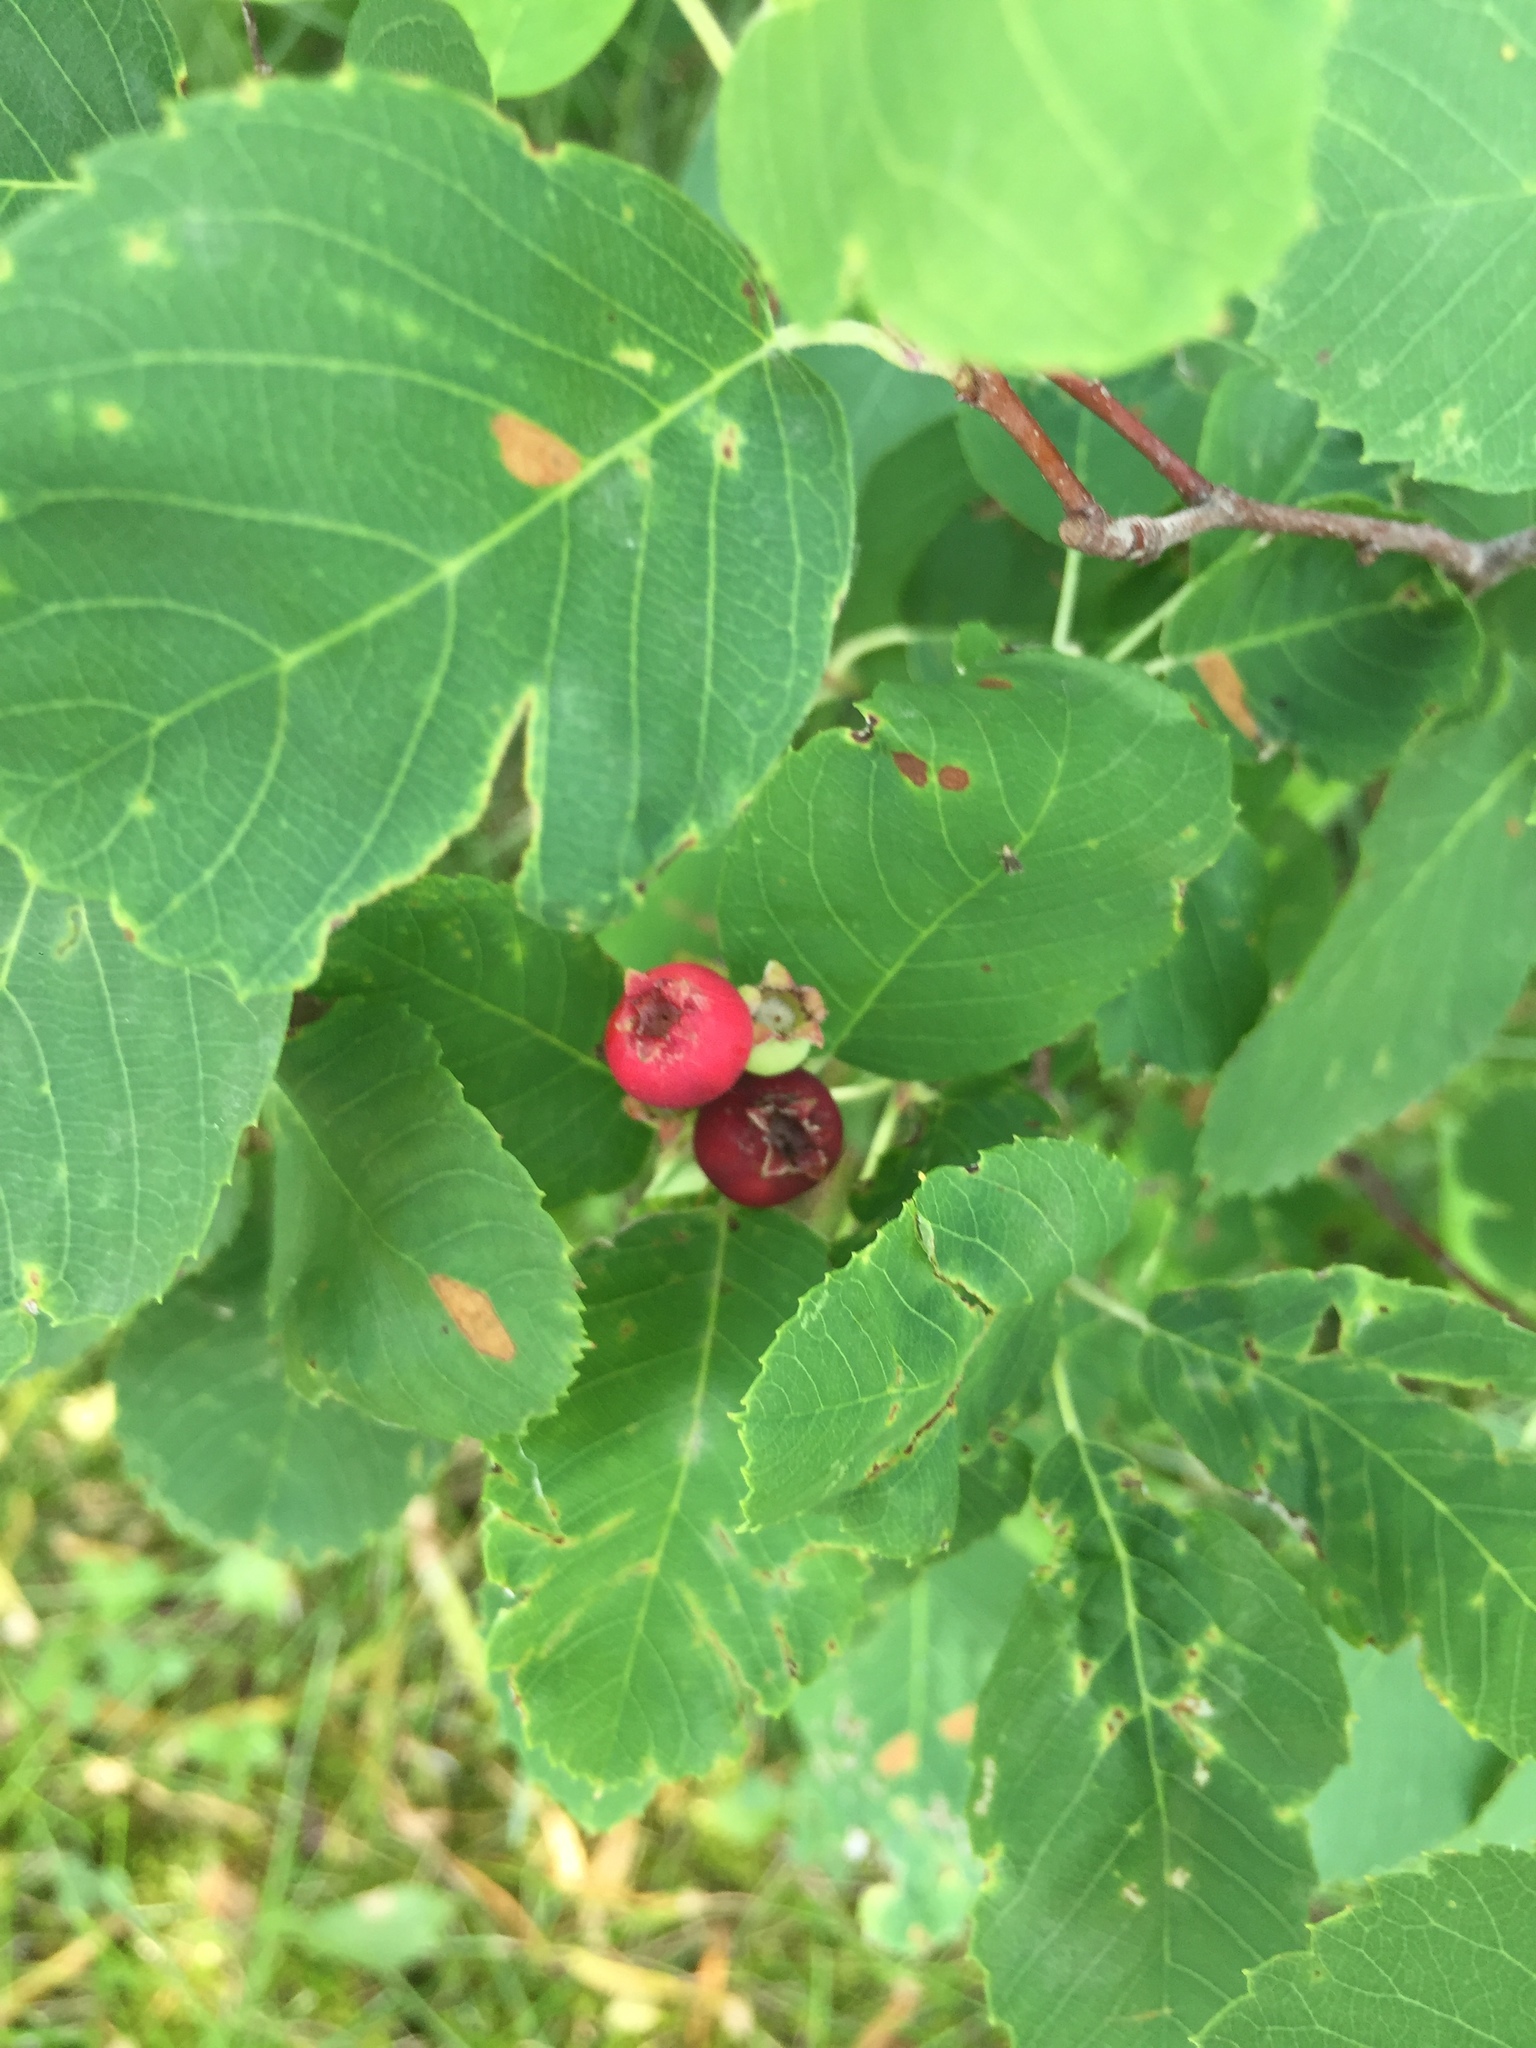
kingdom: Plantae
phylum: Tracheophyta
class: Magnoliopsida
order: Rosales
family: Rosaceae
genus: Amelanchier
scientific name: Amelanchier alnifolia
